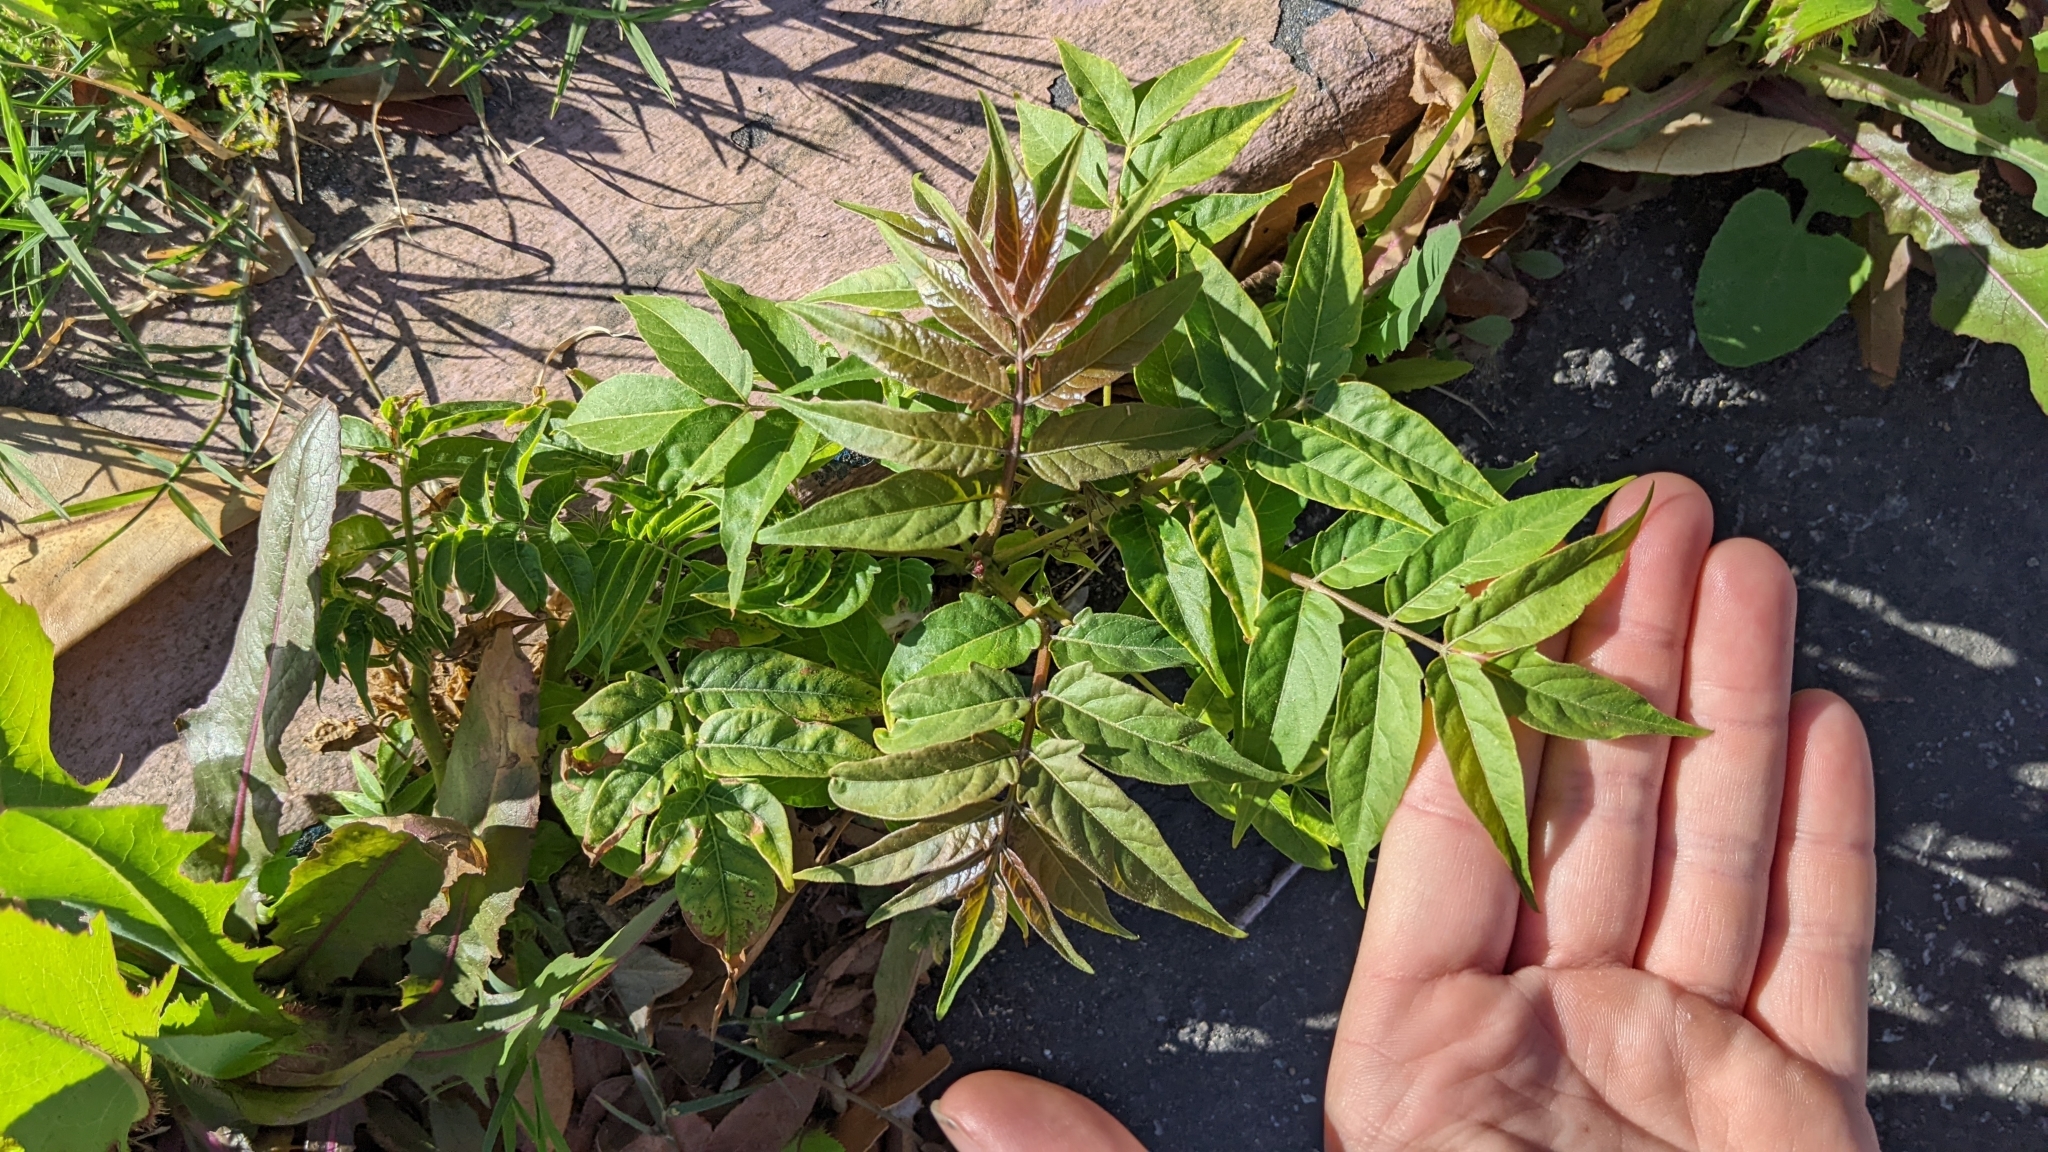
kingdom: Plantae
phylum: Tracheophyta
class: Magnoliopsida
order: Sapindales
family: Simaroubaceae
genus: Ailanthus
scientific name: Ailanthus altissima
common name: Tree-of-heaven
